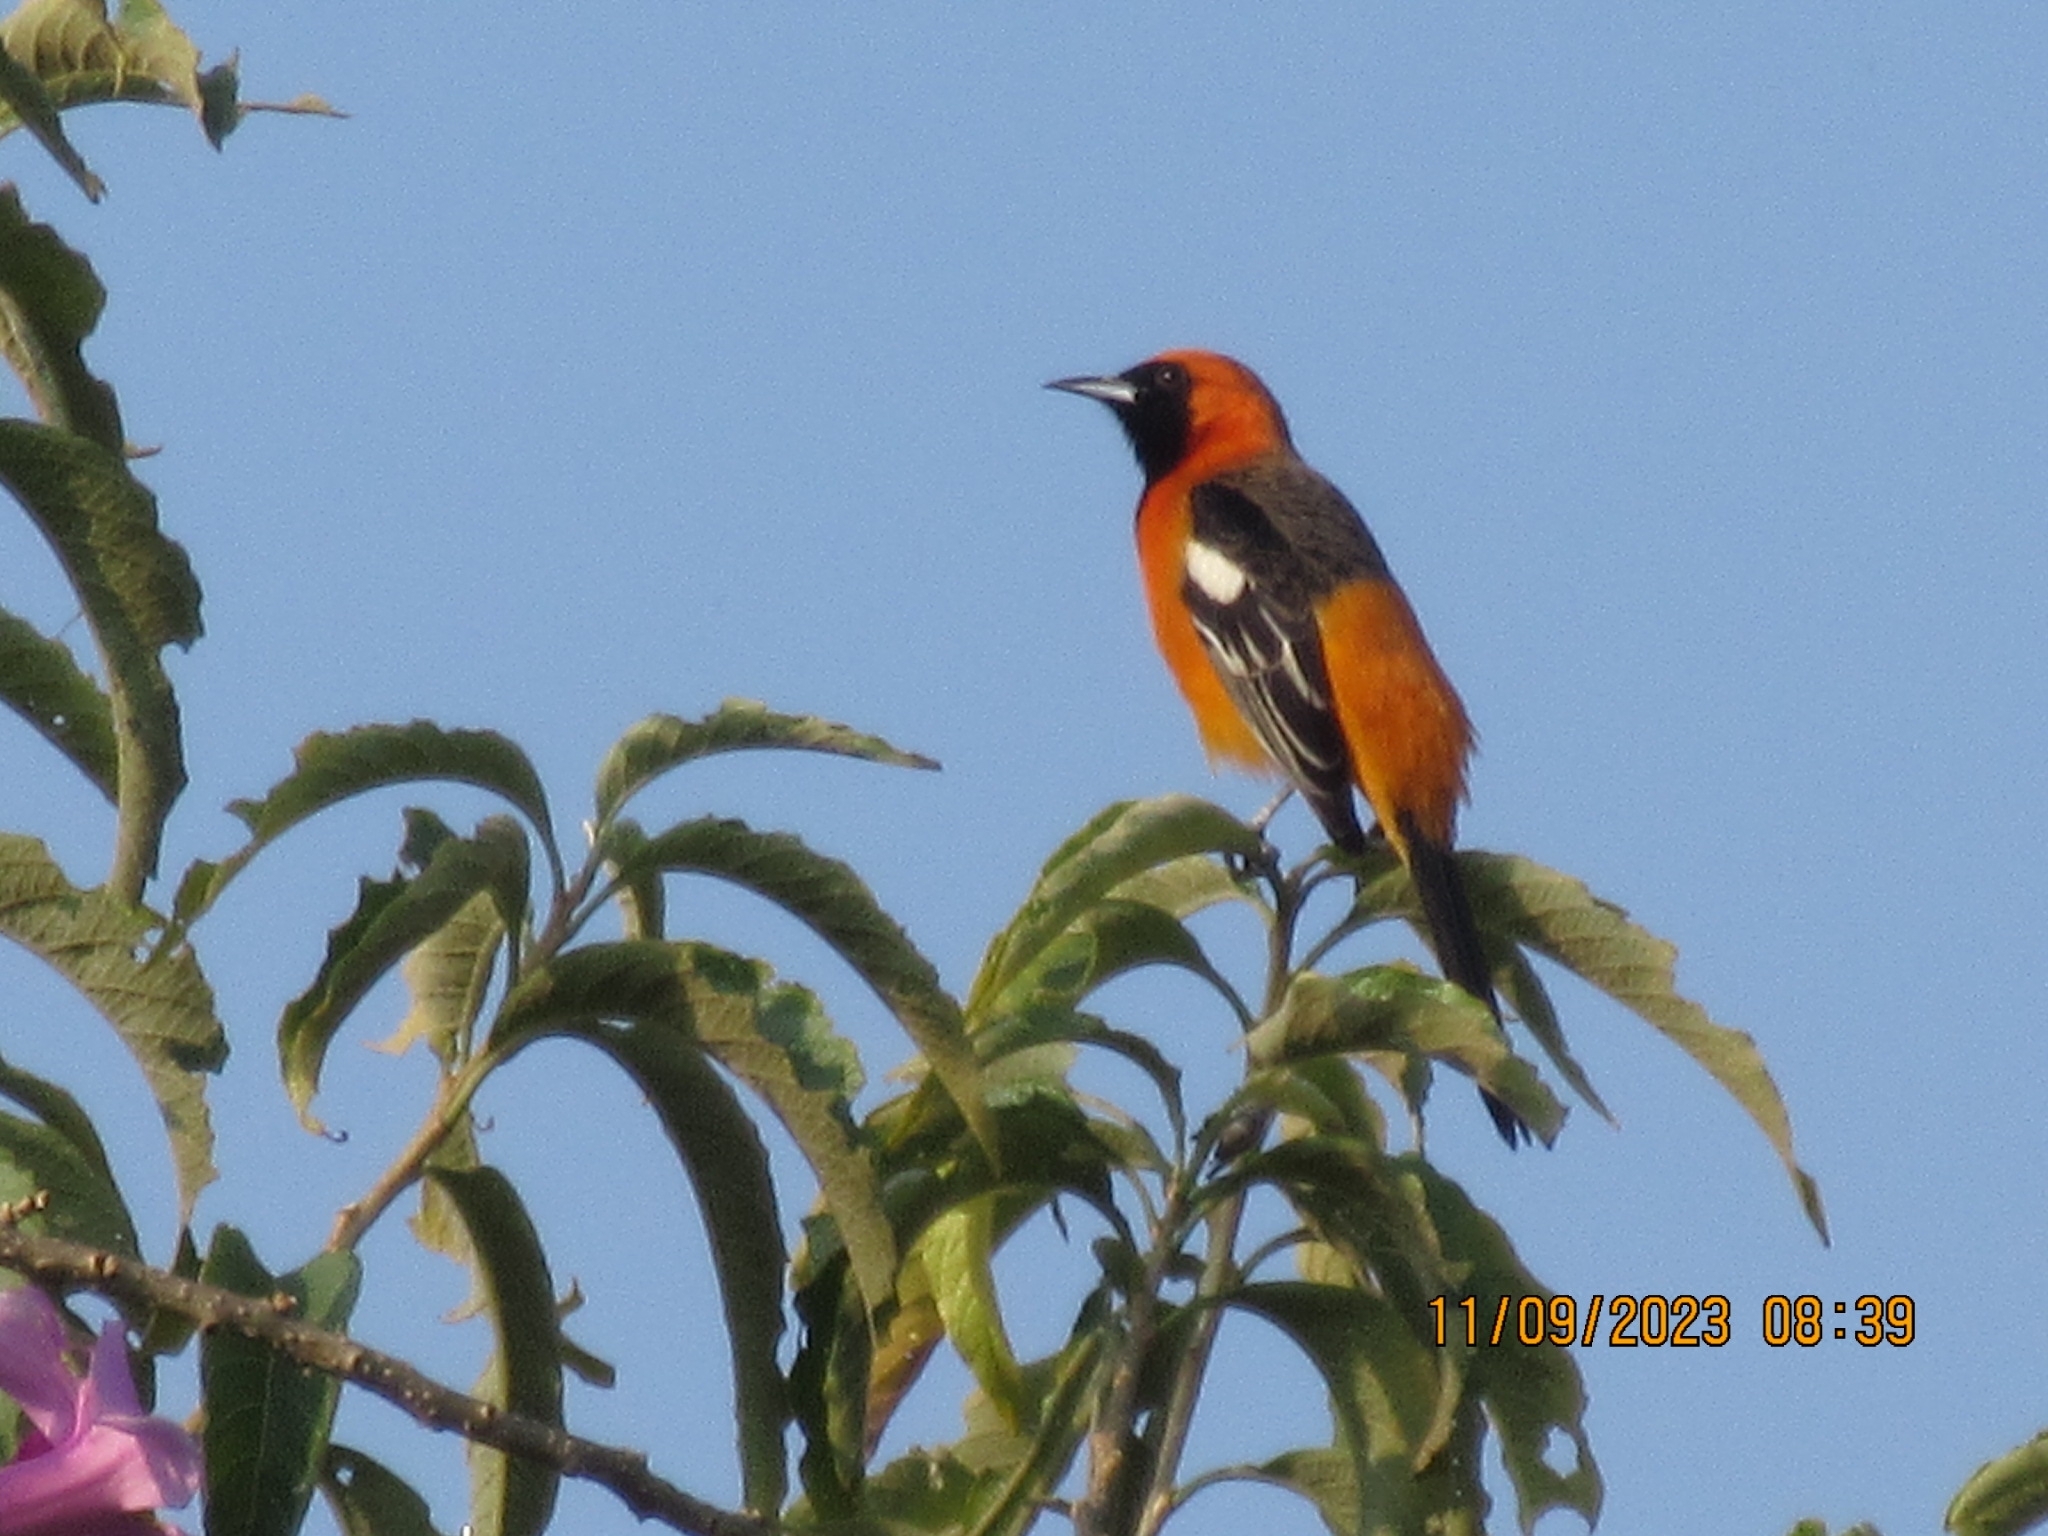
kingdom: Animalia
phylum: Chordata
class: Aves
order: Passeriformes
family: Icteridae
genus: Icterus
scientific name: Icterus cucullatus
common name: Hooded oriole
